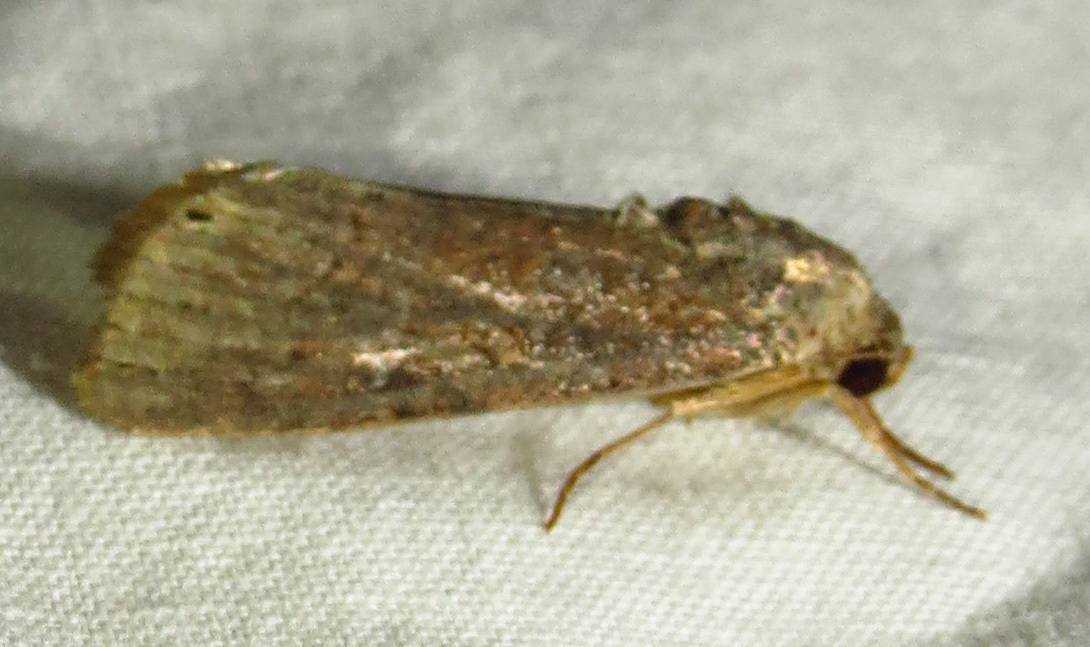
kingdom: Animalia
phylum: Arthropoda
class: Insecta
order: Lepidoptera
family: Noctuidae
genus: Spodoptera
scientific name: Spodoptera frugiperda
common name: Fall armyworm
